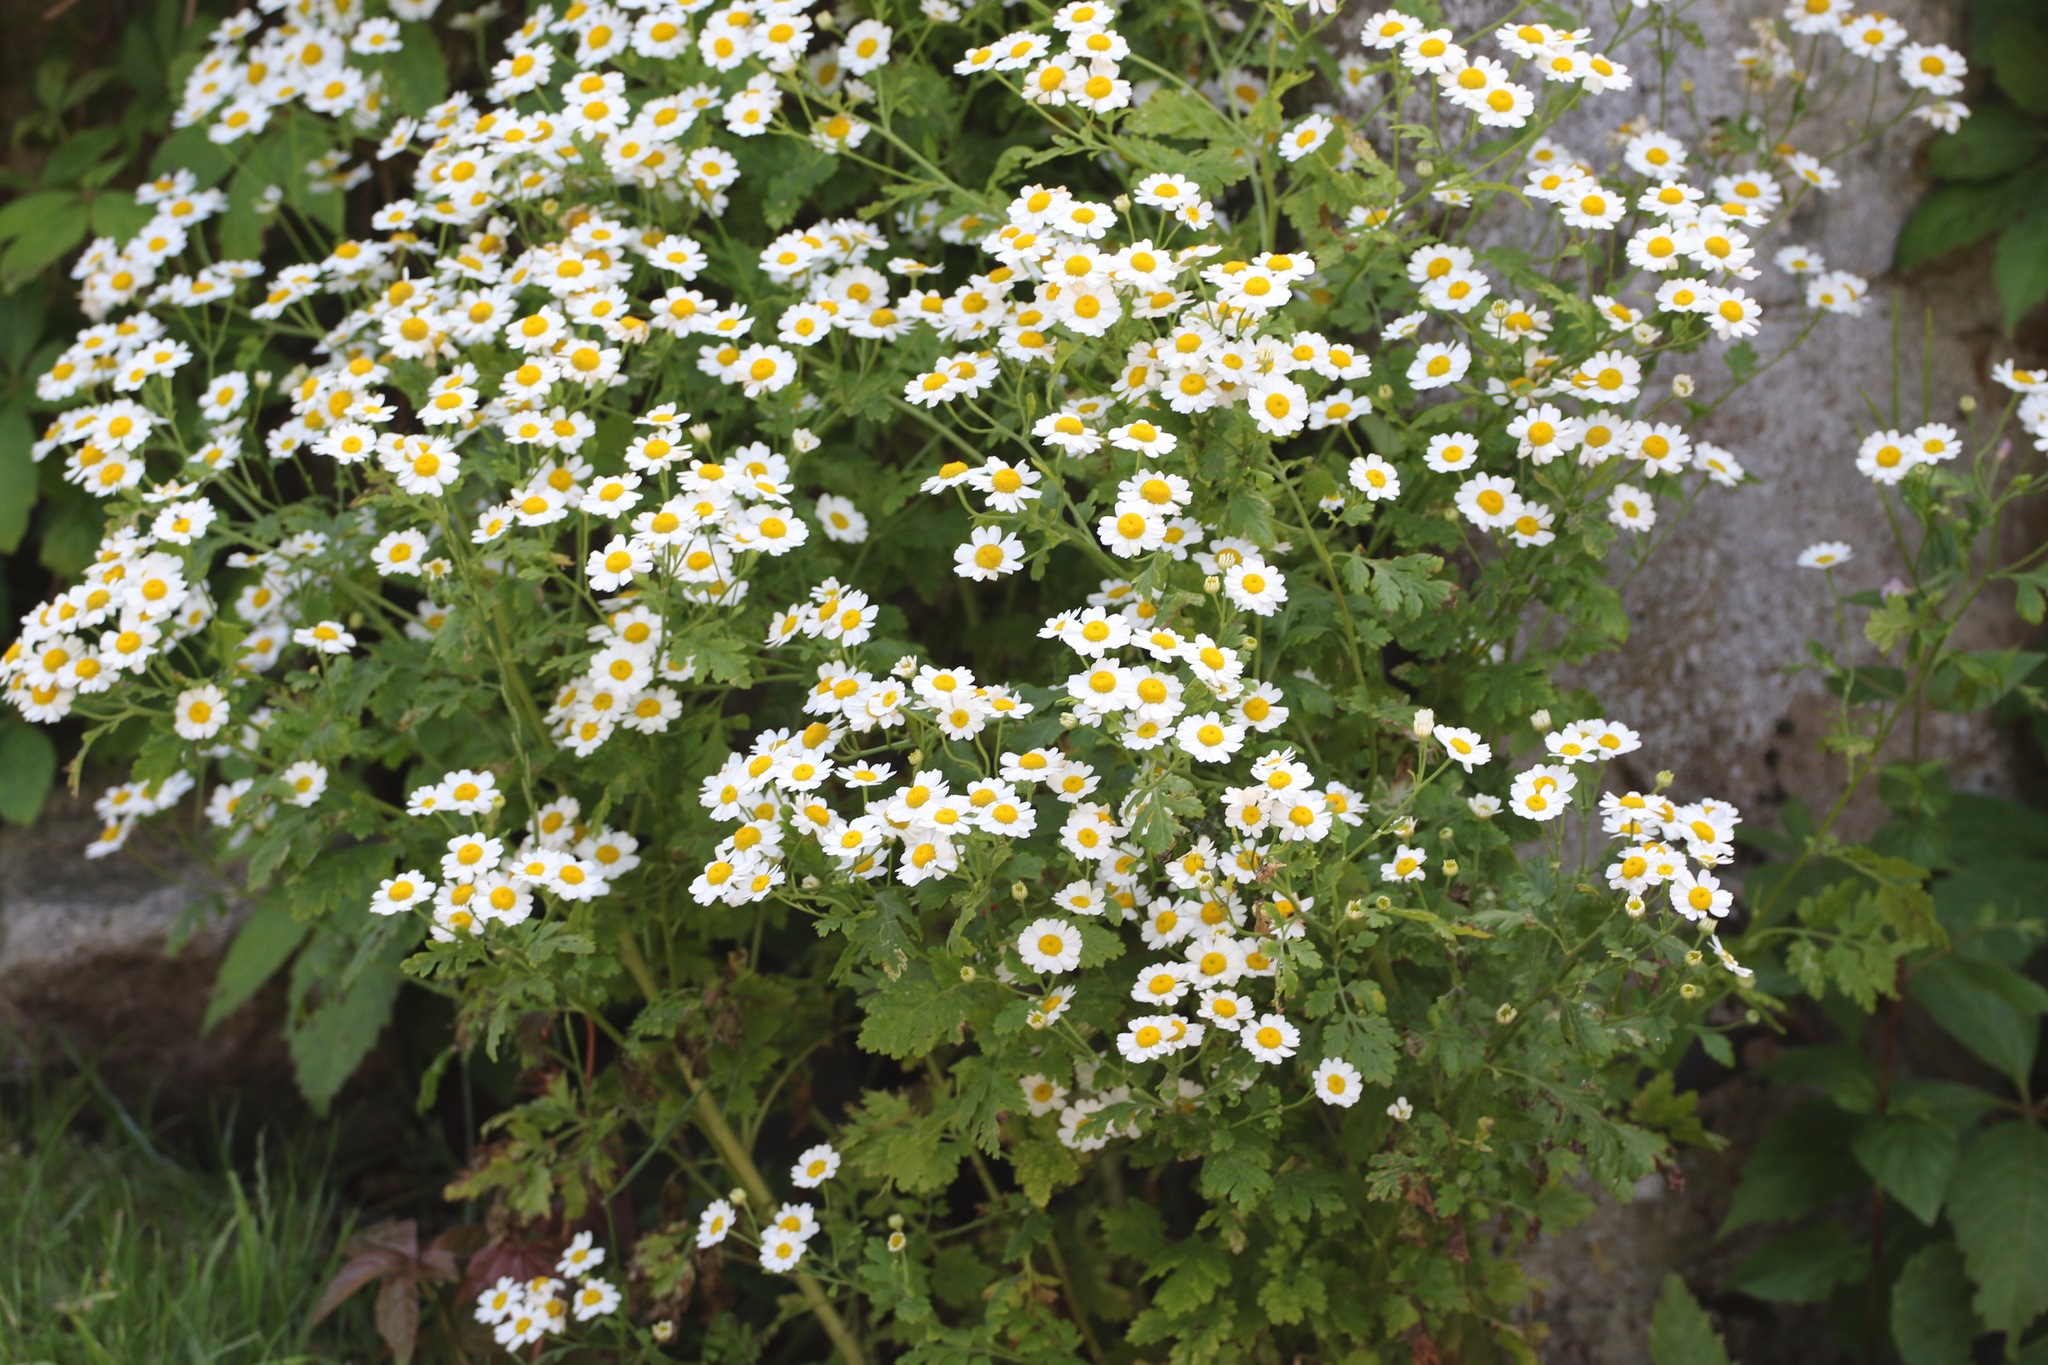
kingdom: Plantae
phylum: Tracheophyta
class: Magnoliopsida
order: Asterales
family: Asteraceae
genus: Tanacetum
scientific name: Tanacetum parthenium
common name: Feverfew
